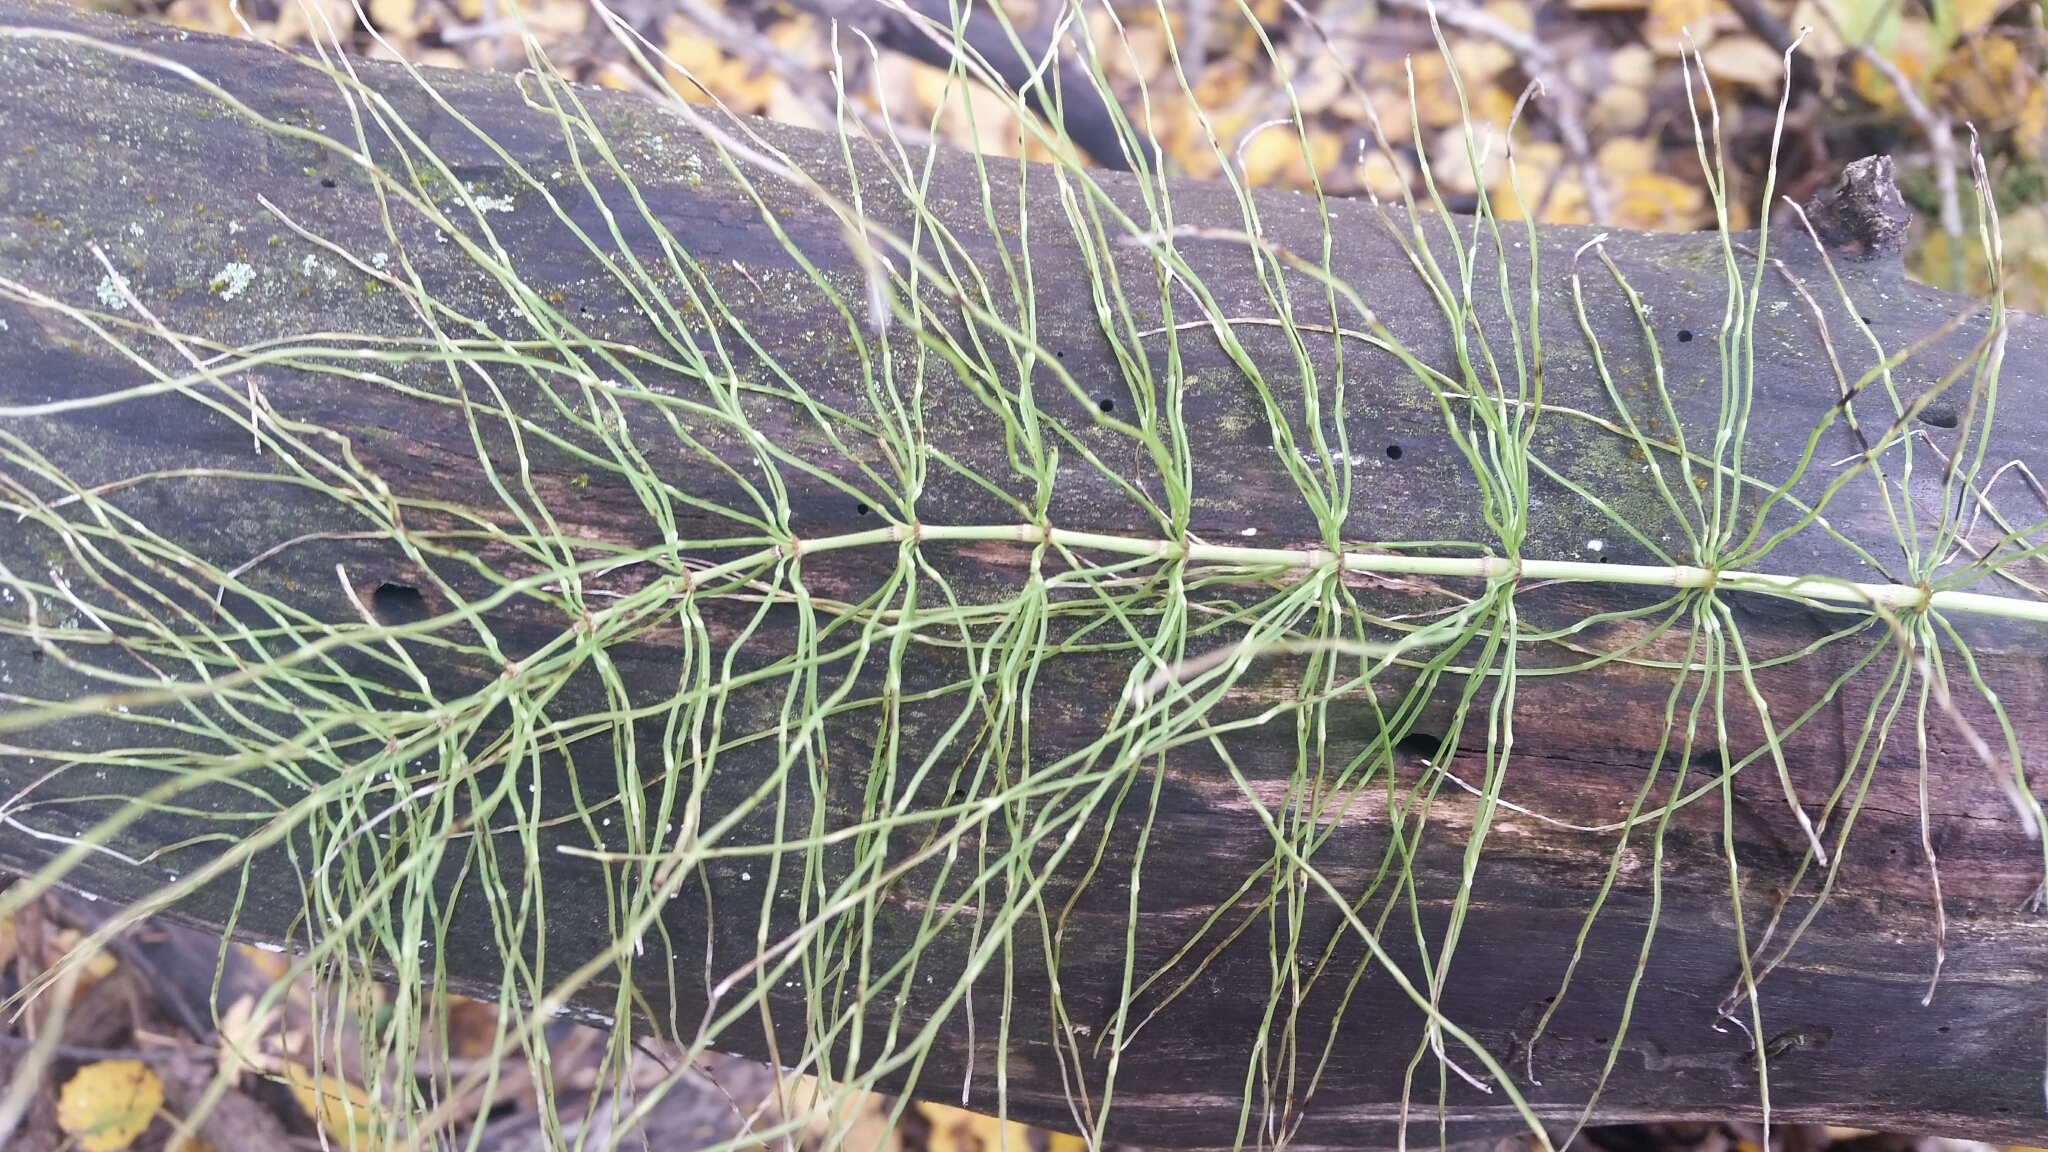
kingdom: Plantae
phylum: Tracheophyta
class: Polypodiopsida
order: Equisetales
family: Equisetaceae
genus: Equisetum
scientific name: Equisetum pratense
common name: Meadow horsetail
